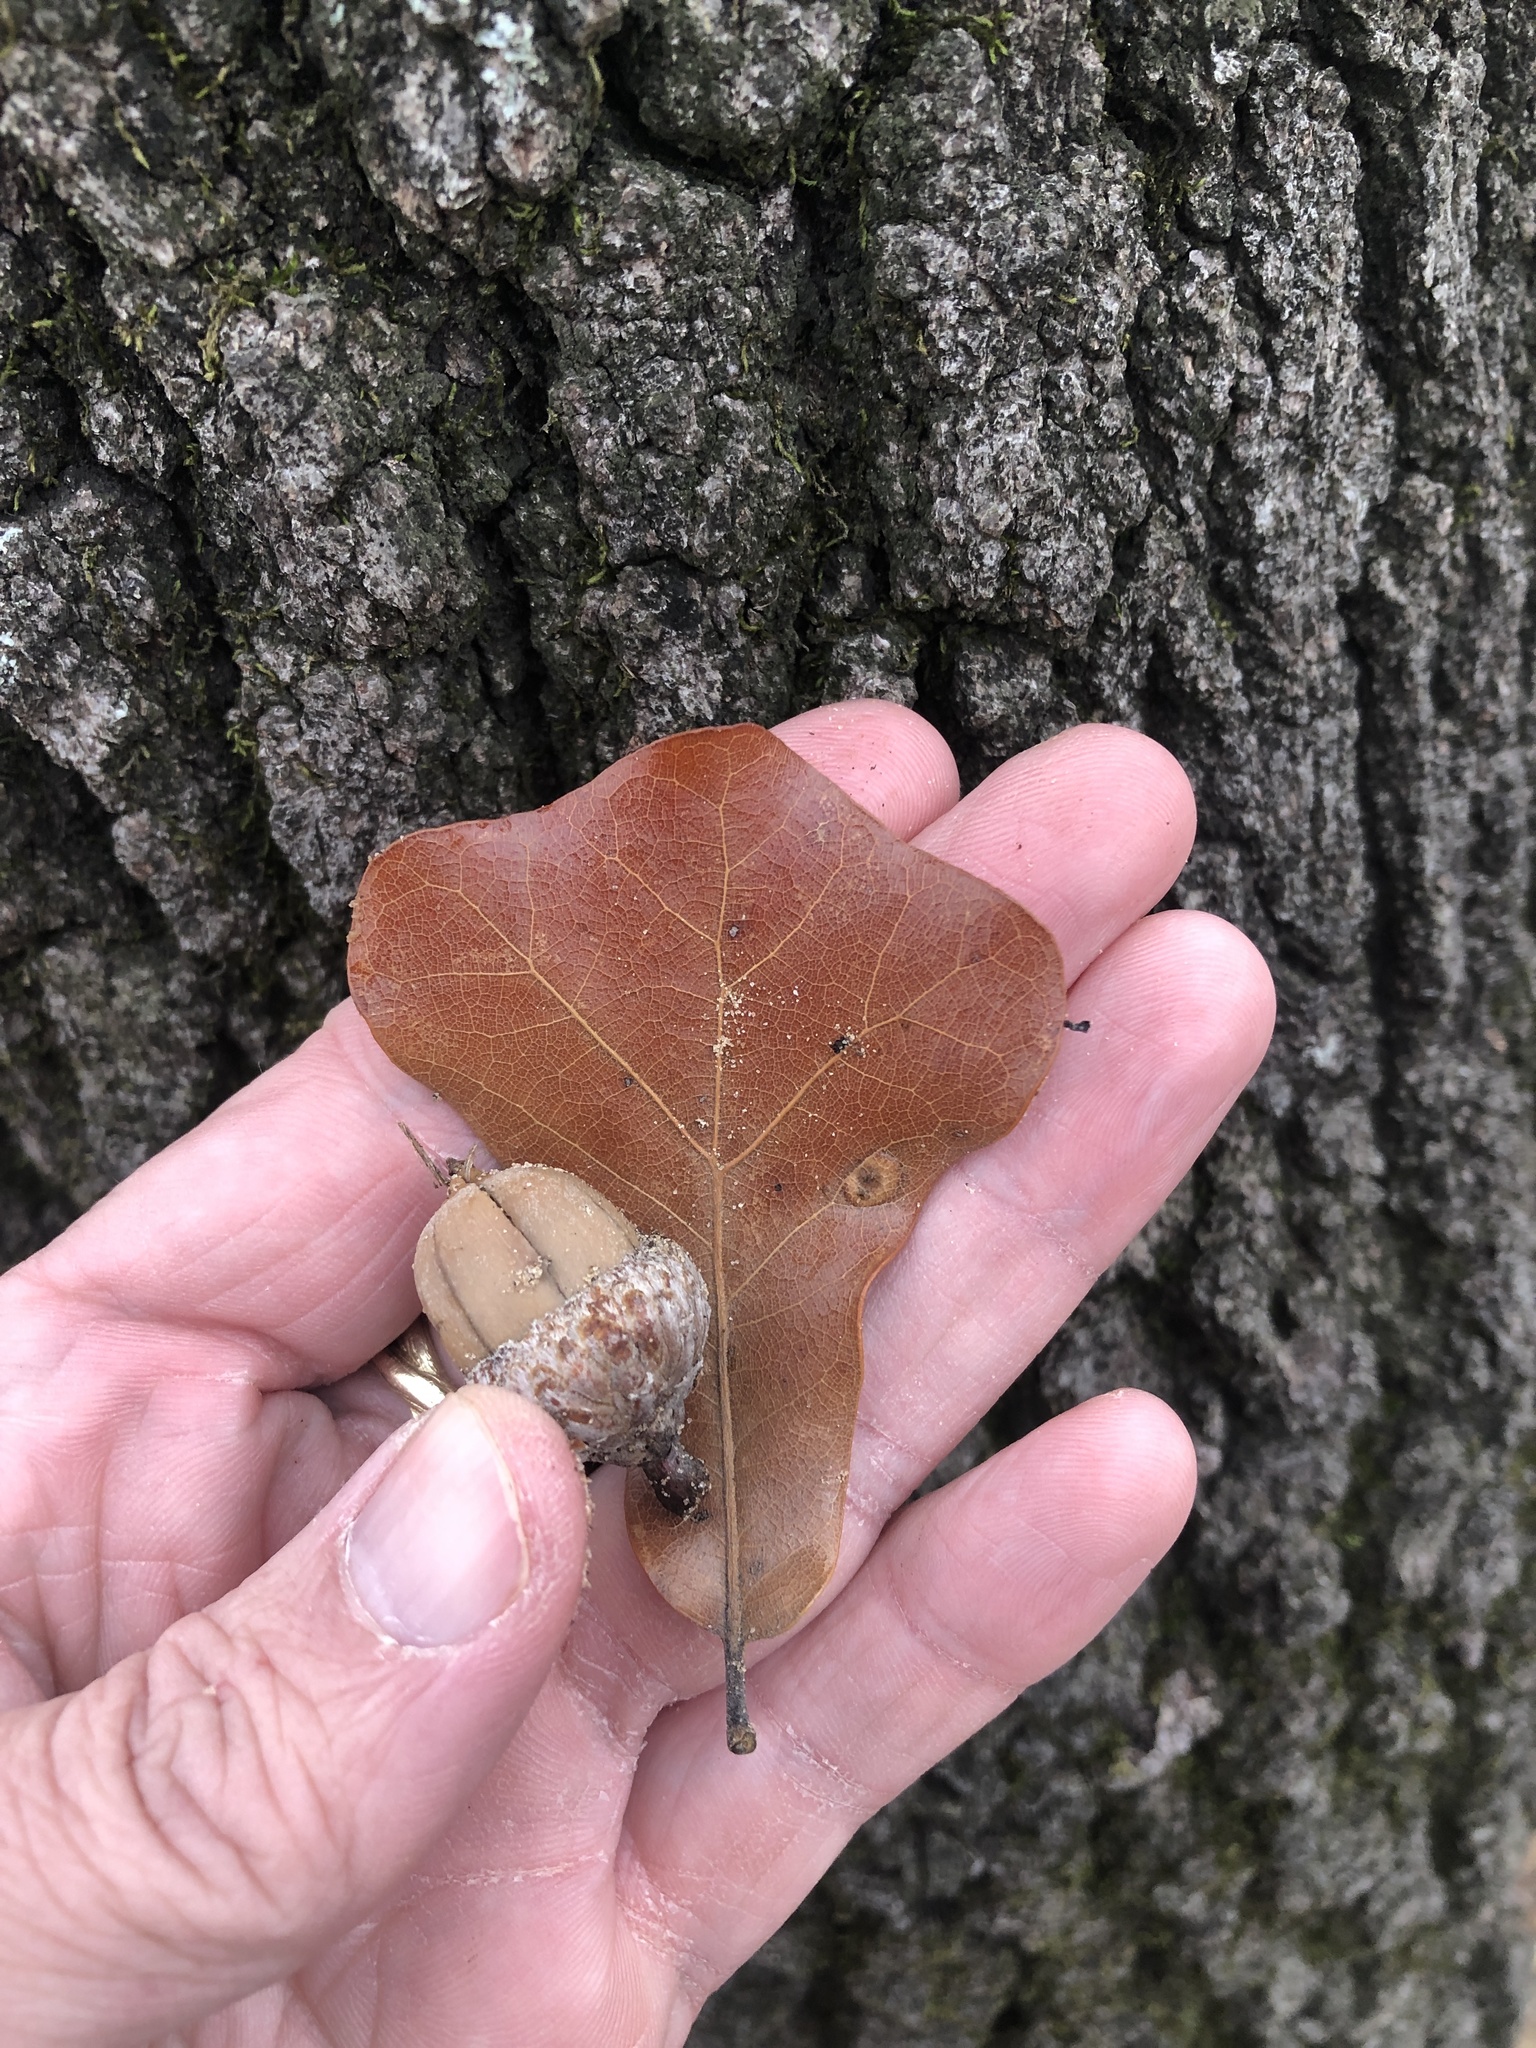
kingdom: Plantae
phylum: Tracheophyta
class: Magnoliopsida
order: Fagales
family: Fagaceae
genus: Quercus
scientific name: Quercus marilandica
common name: Blackjack oak
